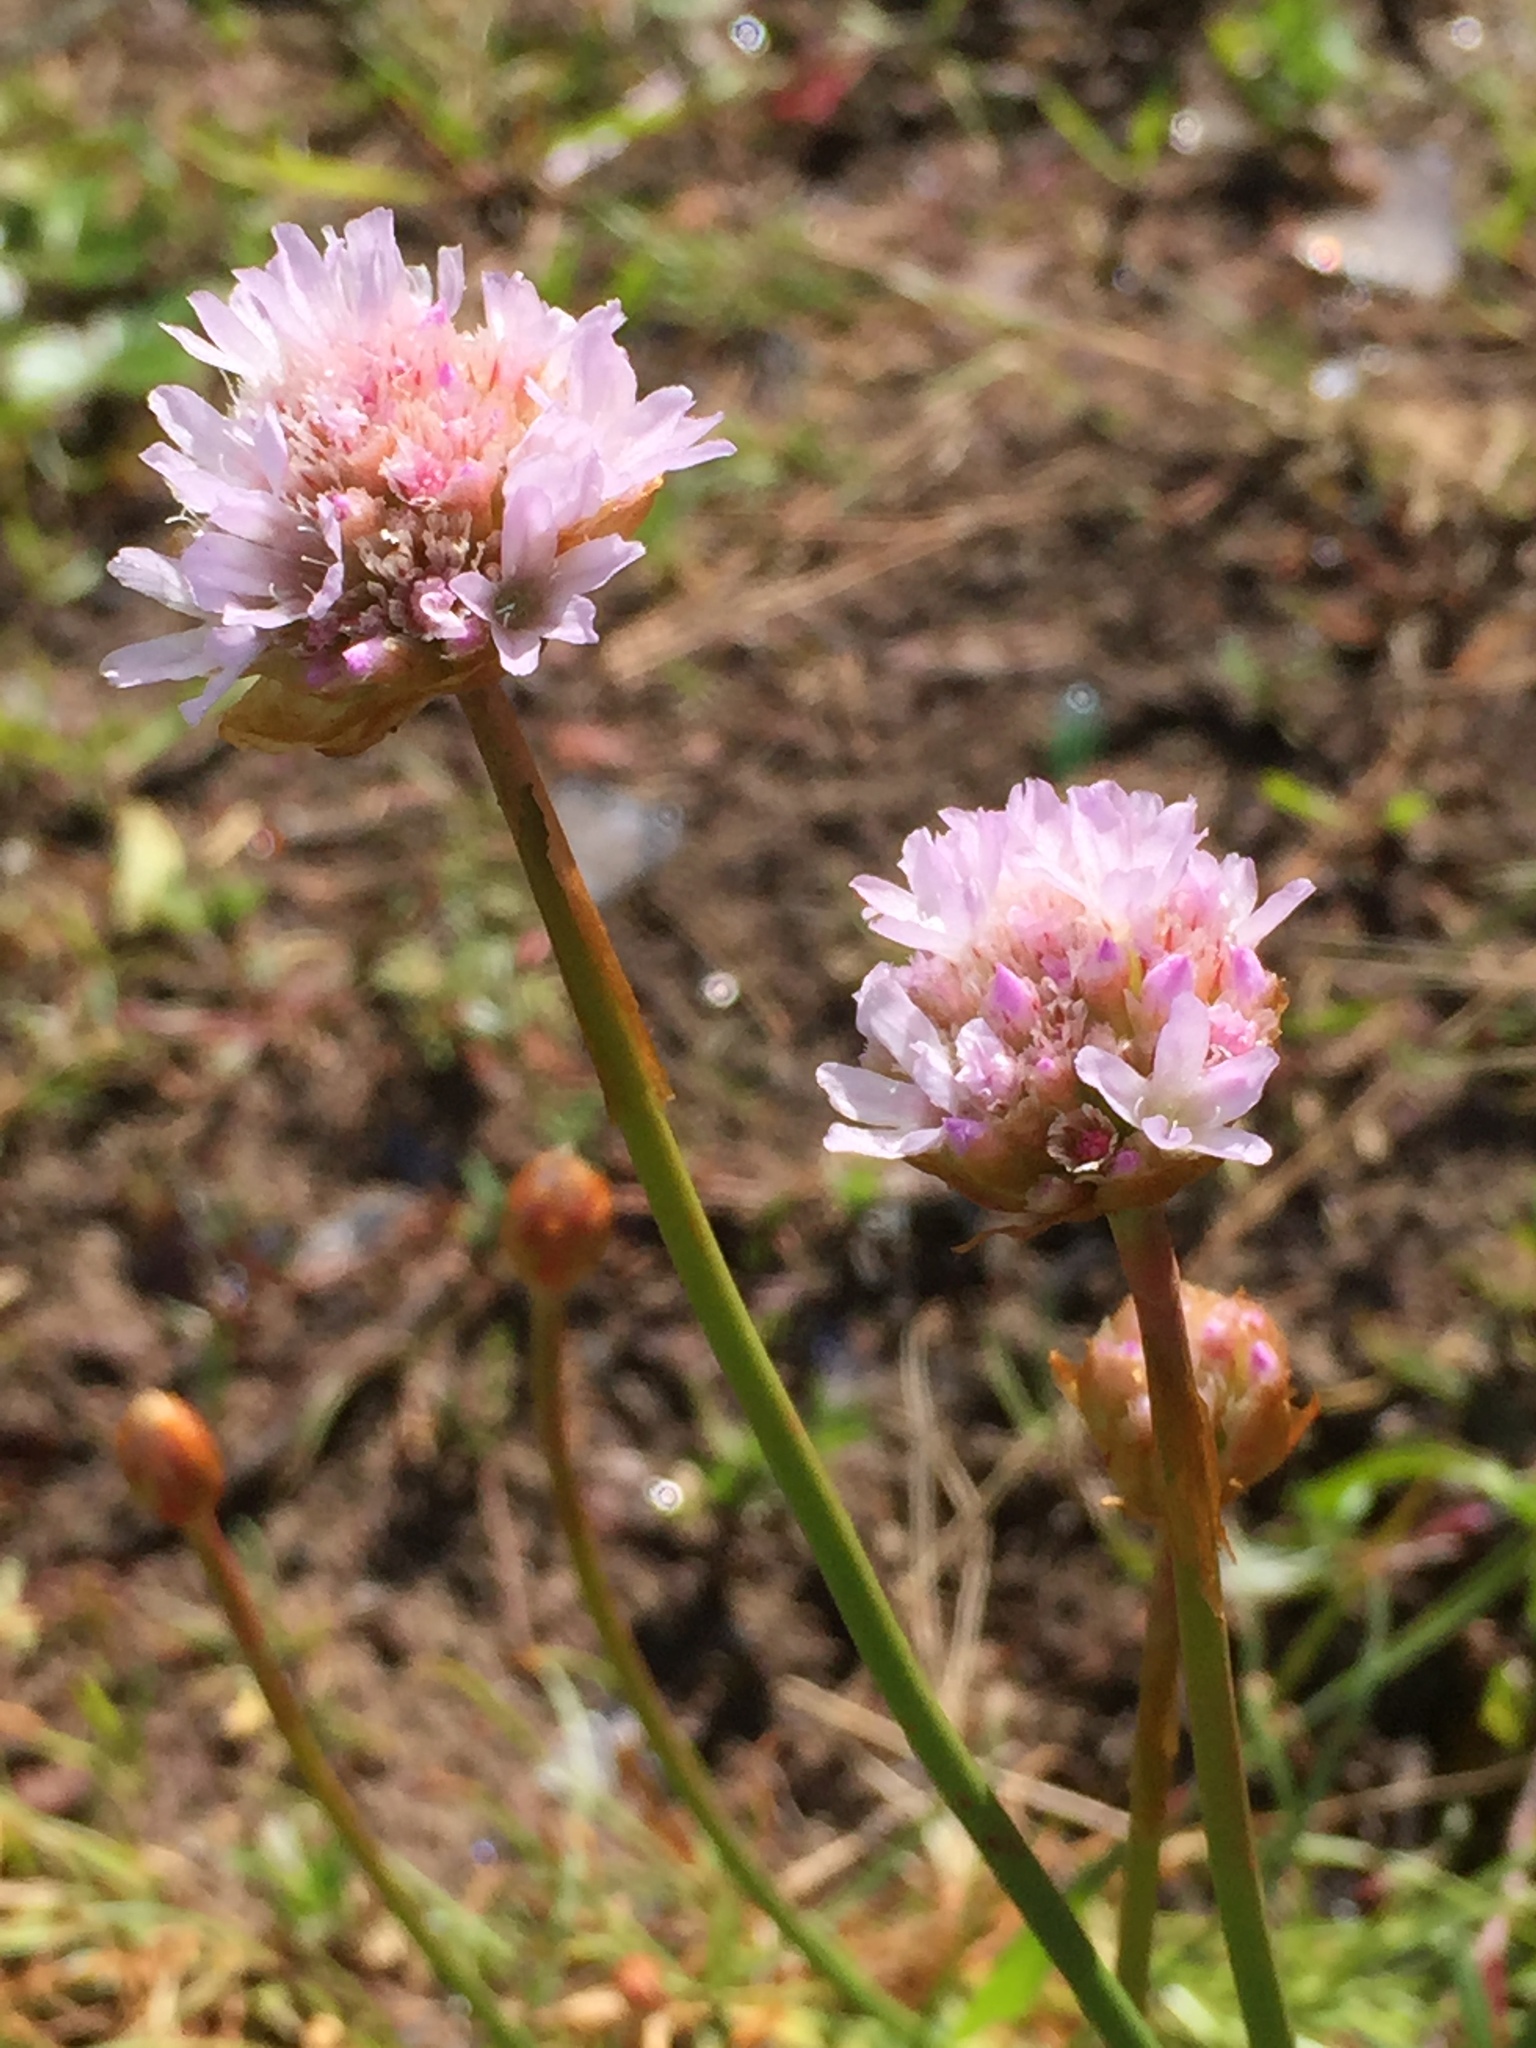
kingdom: Plantae
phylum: Tracheophyta
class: Magnoliopsida
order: Caryophyllales
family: Plumbaginaceae
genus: Armeria
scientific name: Armeria maritima
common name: Thrift
